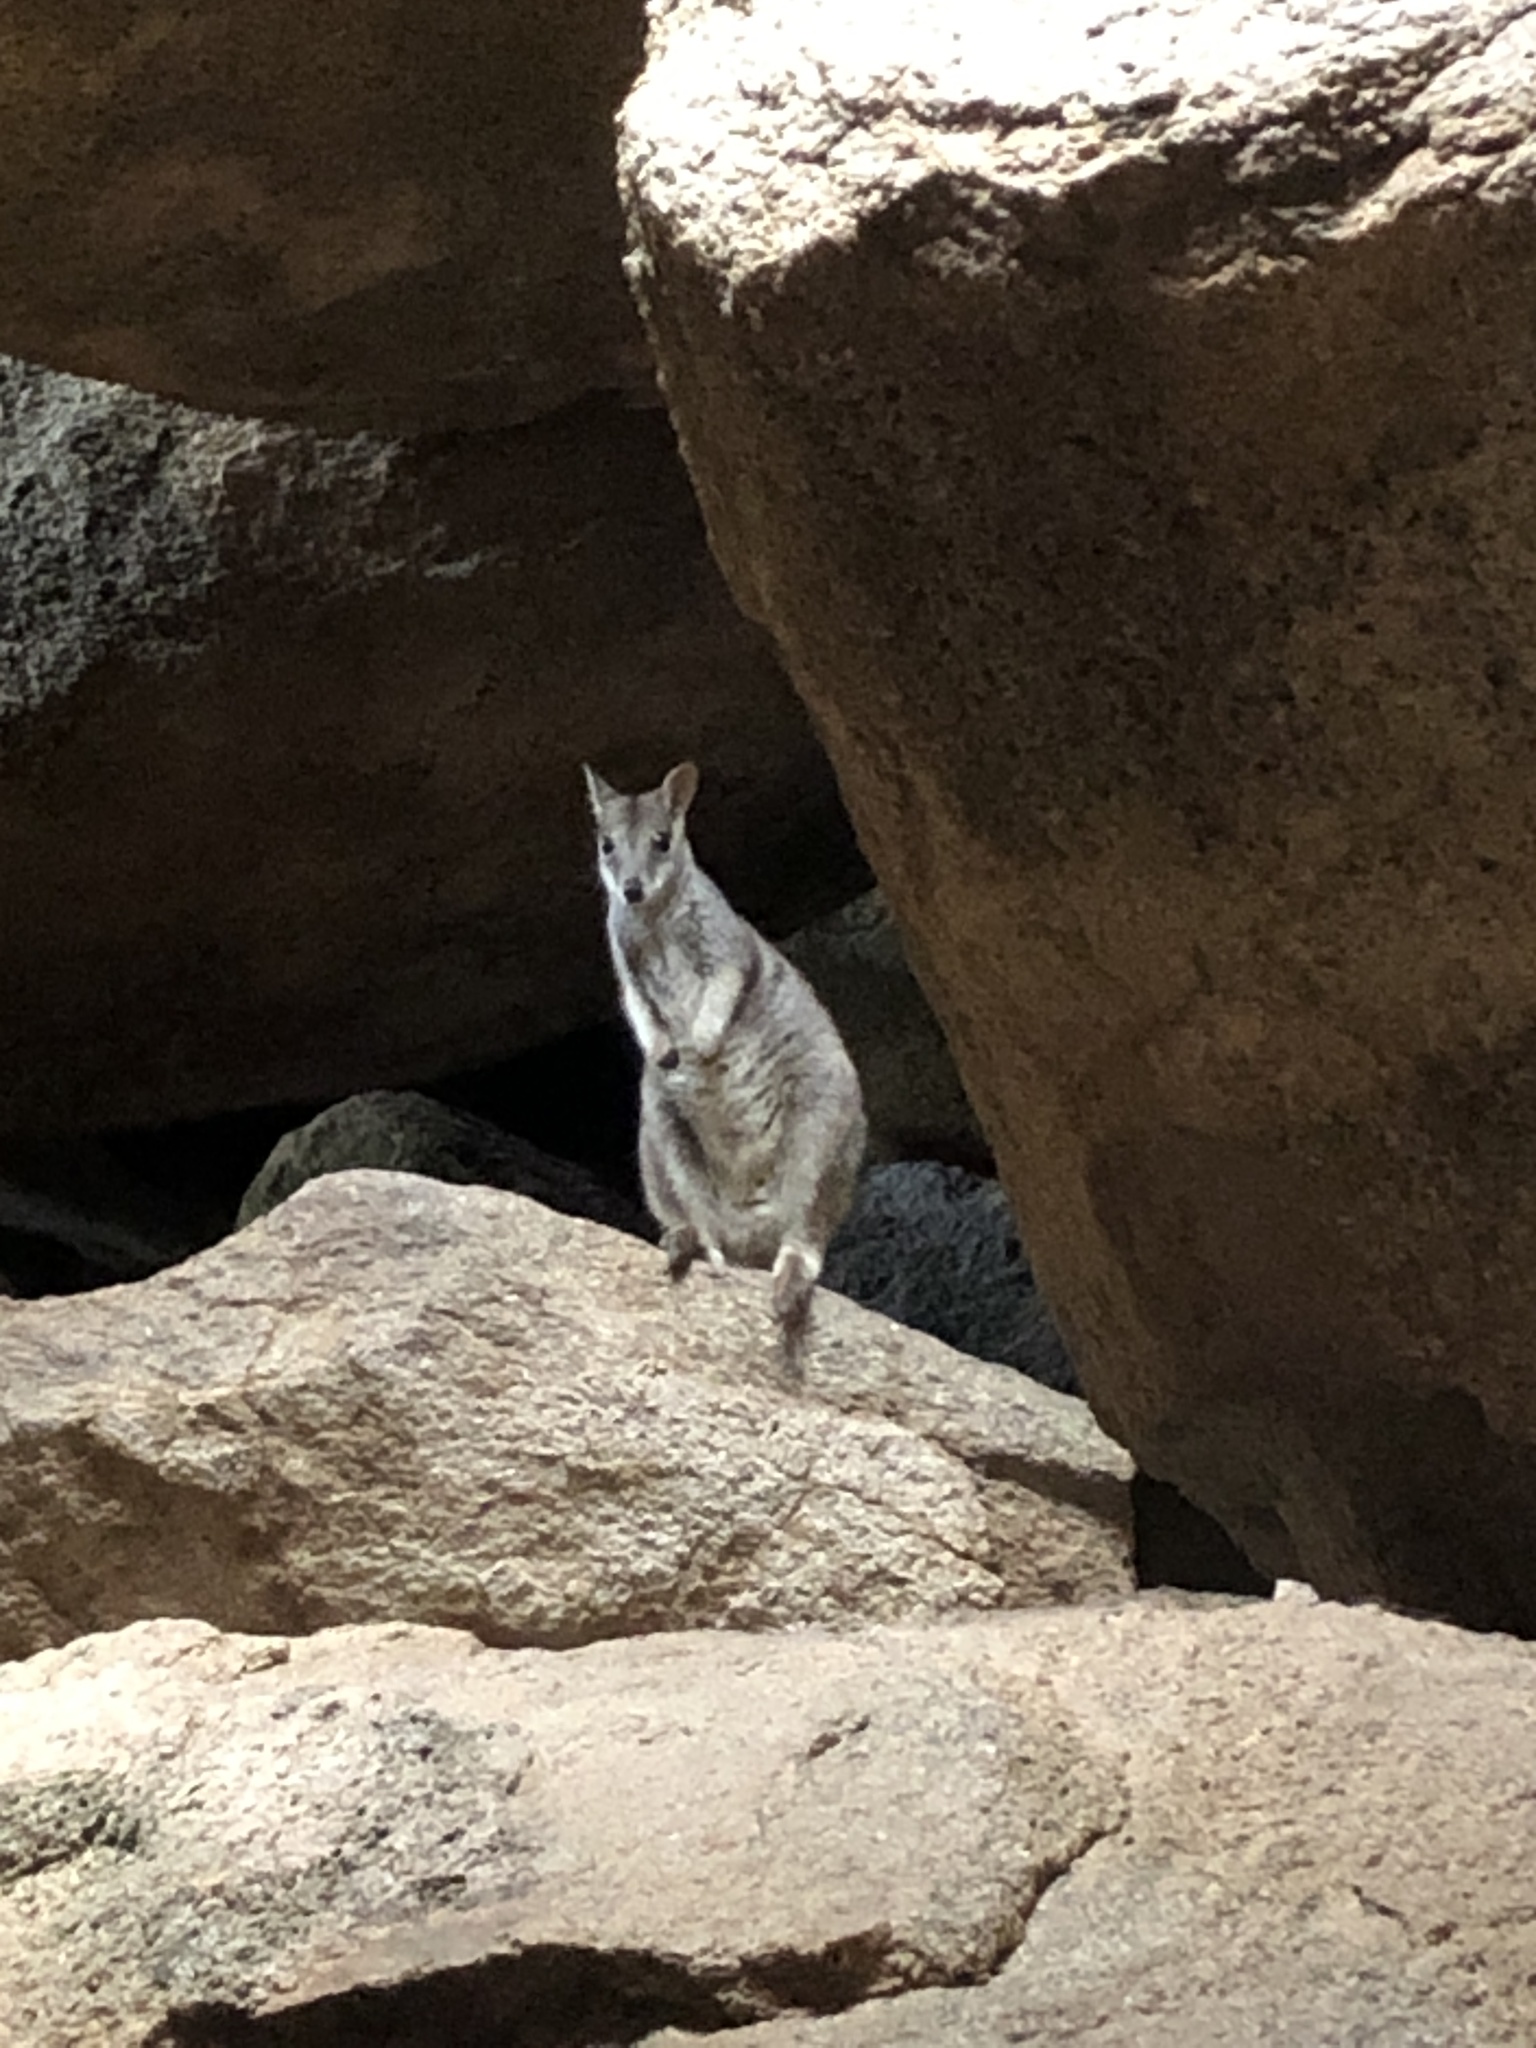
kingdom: Animalia
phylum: Chordata
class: Mammalia
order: Diprotodontia
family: Macropodidae
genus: Petrogale
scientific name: Petrogale assimilis
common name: Allied rock wallaby
